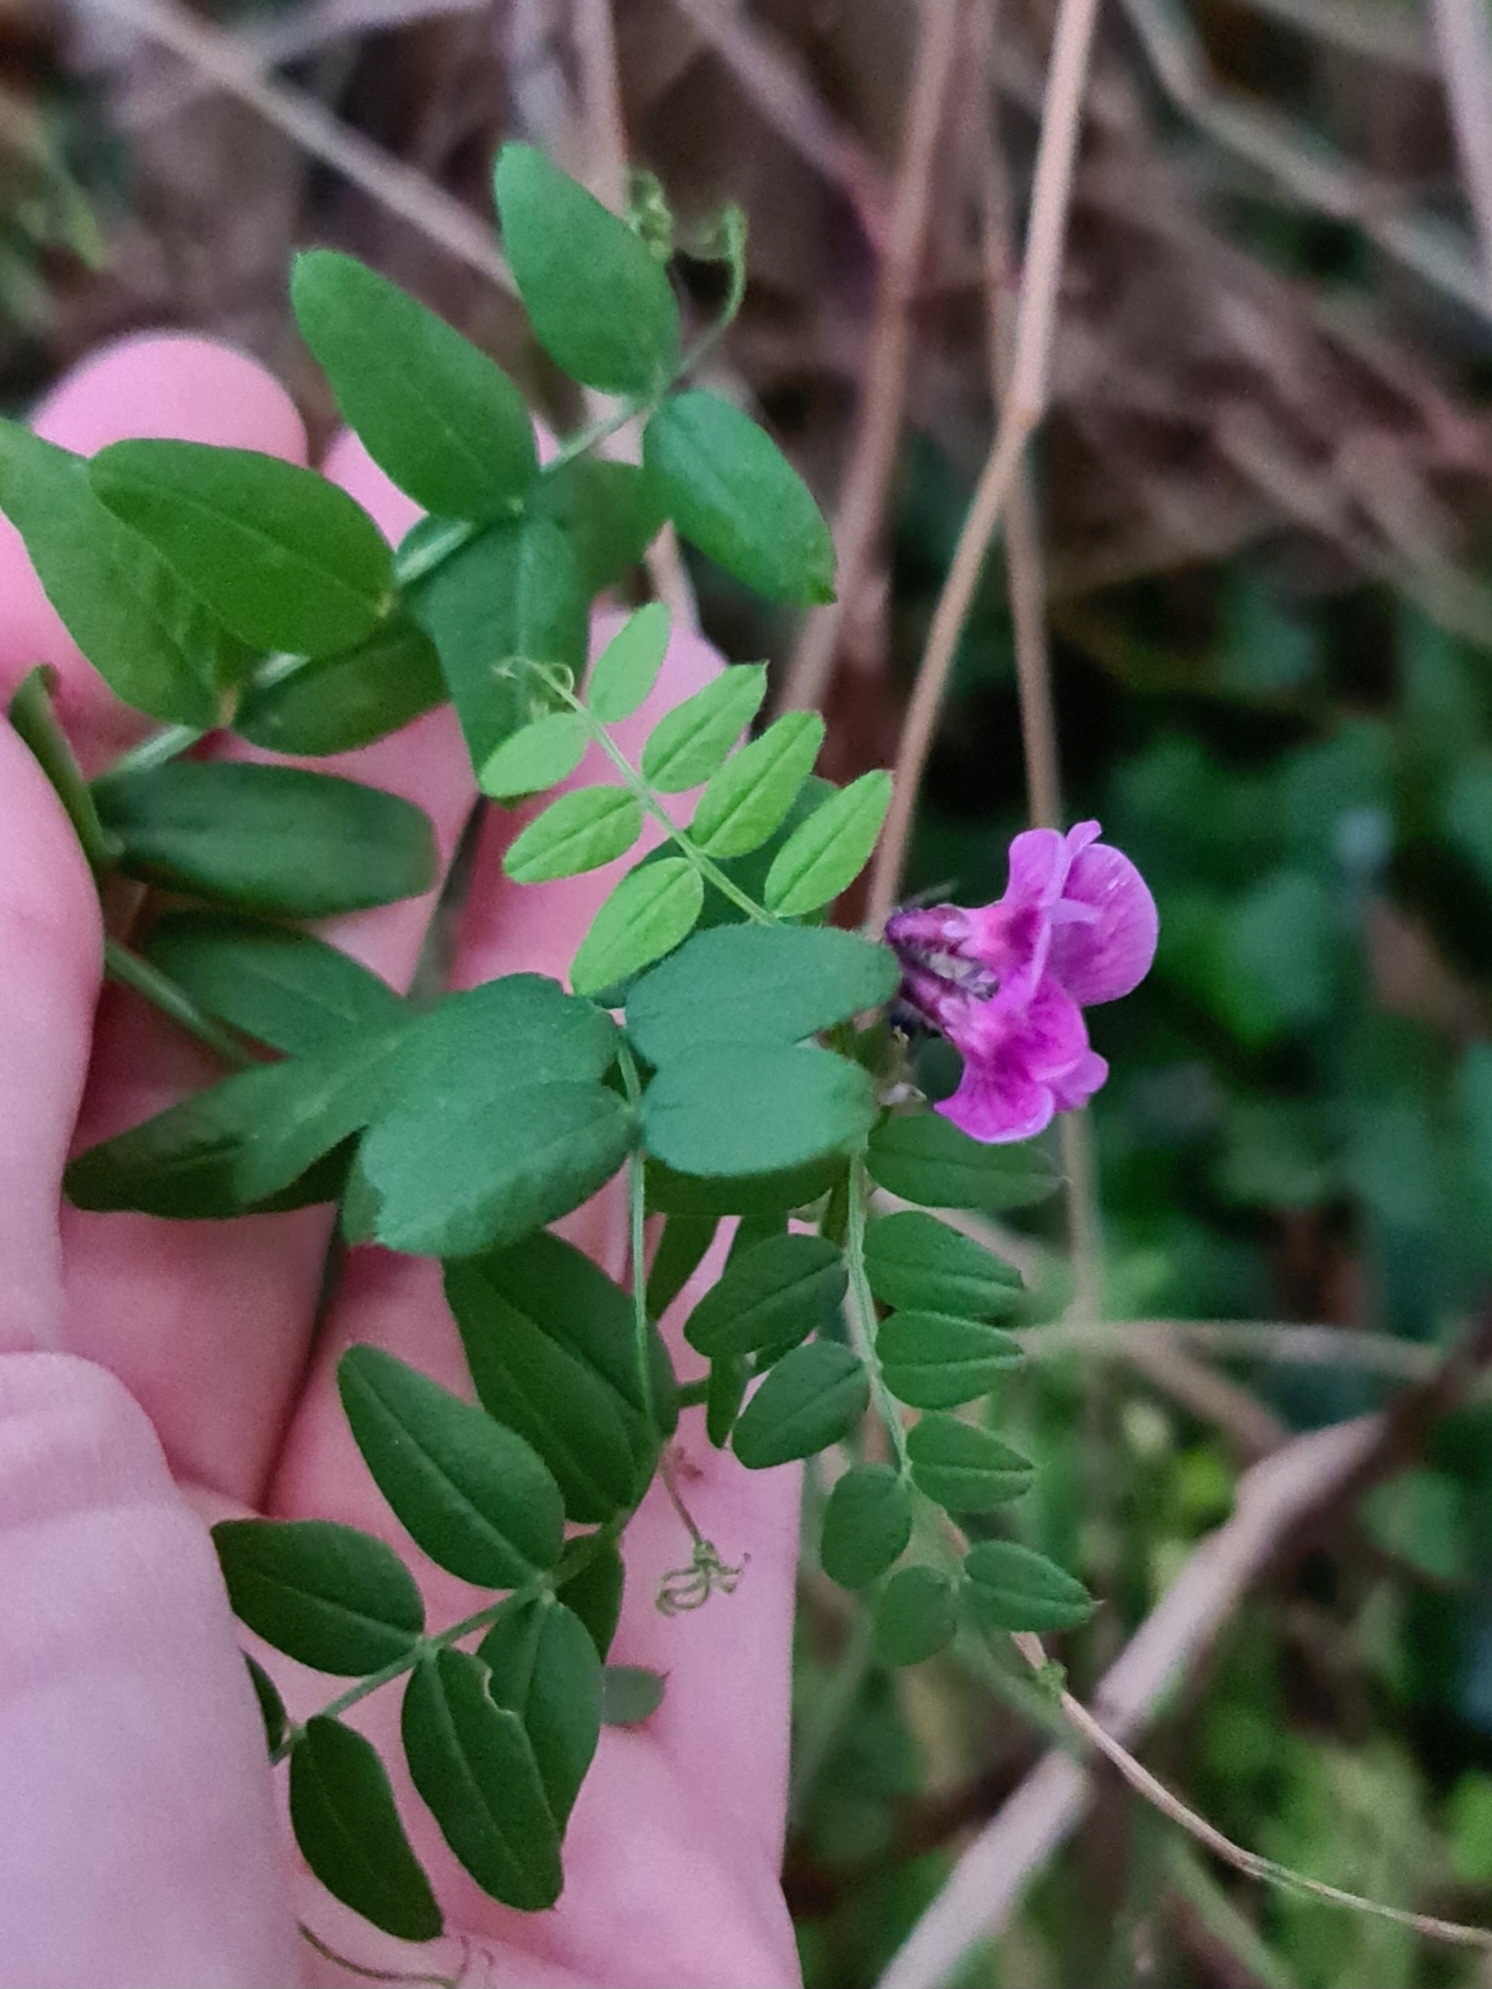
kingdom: Plantae
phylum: Tracheophyta
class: Magnoliopsida
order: Fabales
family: Fabaceae
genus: Vicia
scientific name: Vicia sepium
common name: Bush vetch
